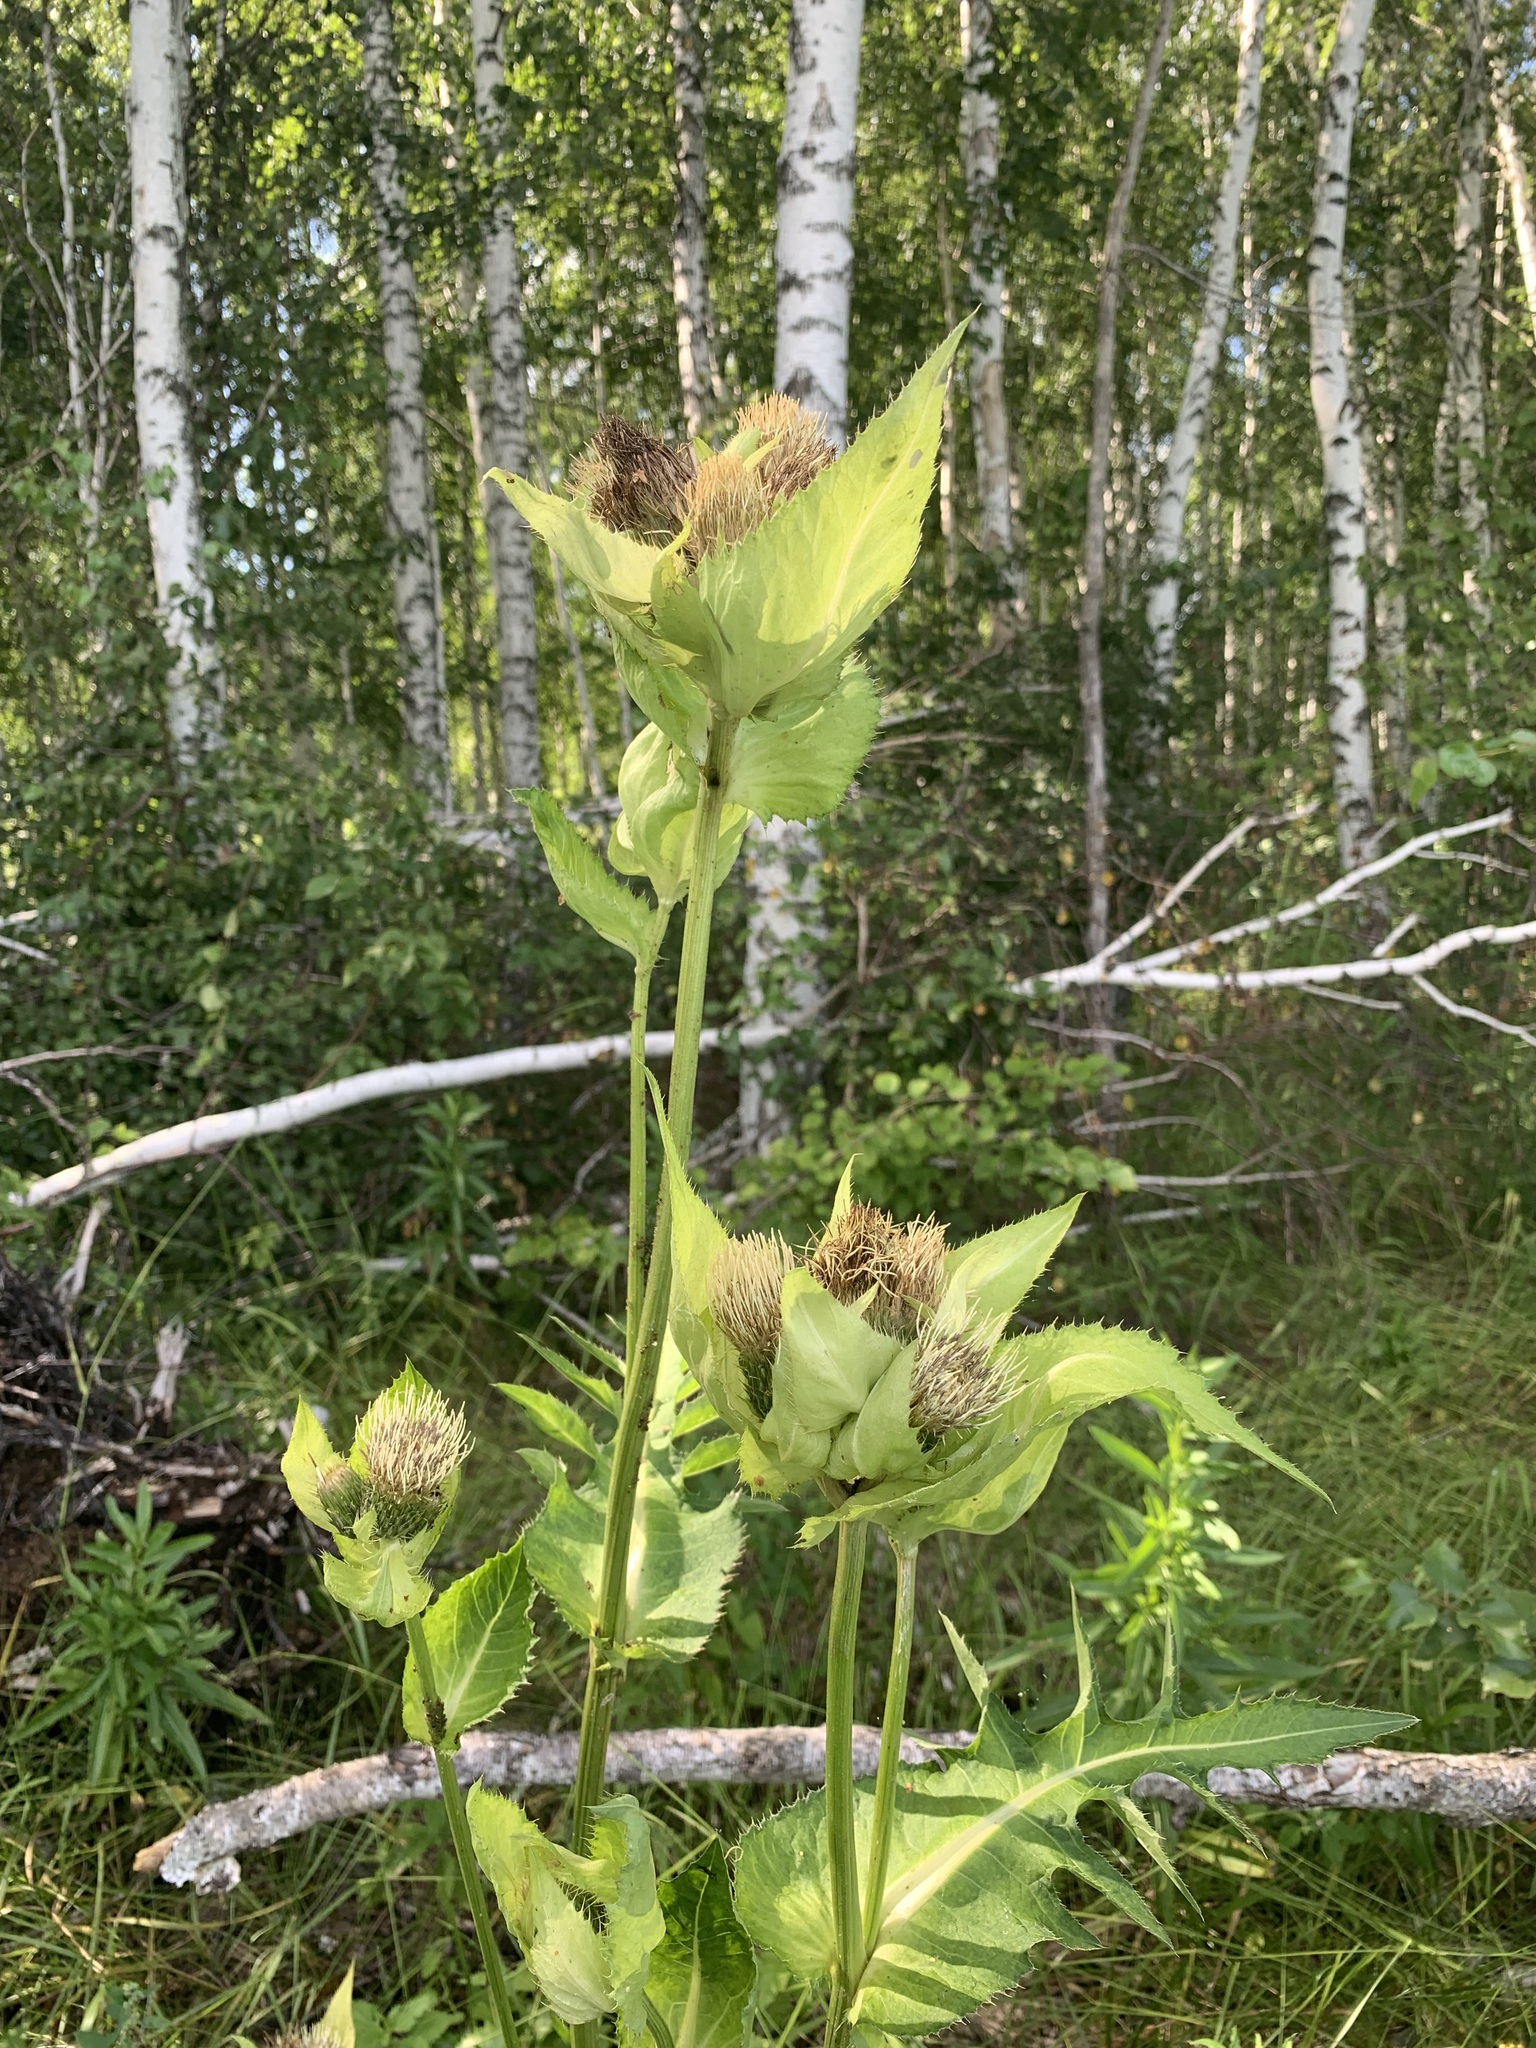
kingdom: Plantae
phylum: Tracheophyta
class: Magnoliopsida
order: Asterales
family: Asteraceae
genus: Cirsium
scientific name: Cirsium oleraceum
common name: Cabbage thistle
